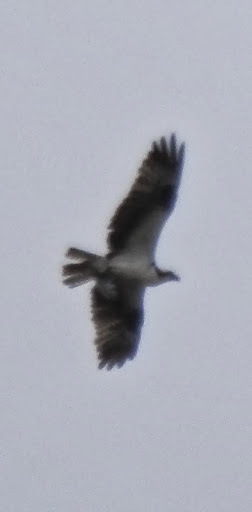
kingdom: Animalia
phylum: Chordata
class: Aves
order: Accipitriformes
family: Pandionidae
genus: Pandion
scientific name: Pandion haliaetus
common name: Osprey
